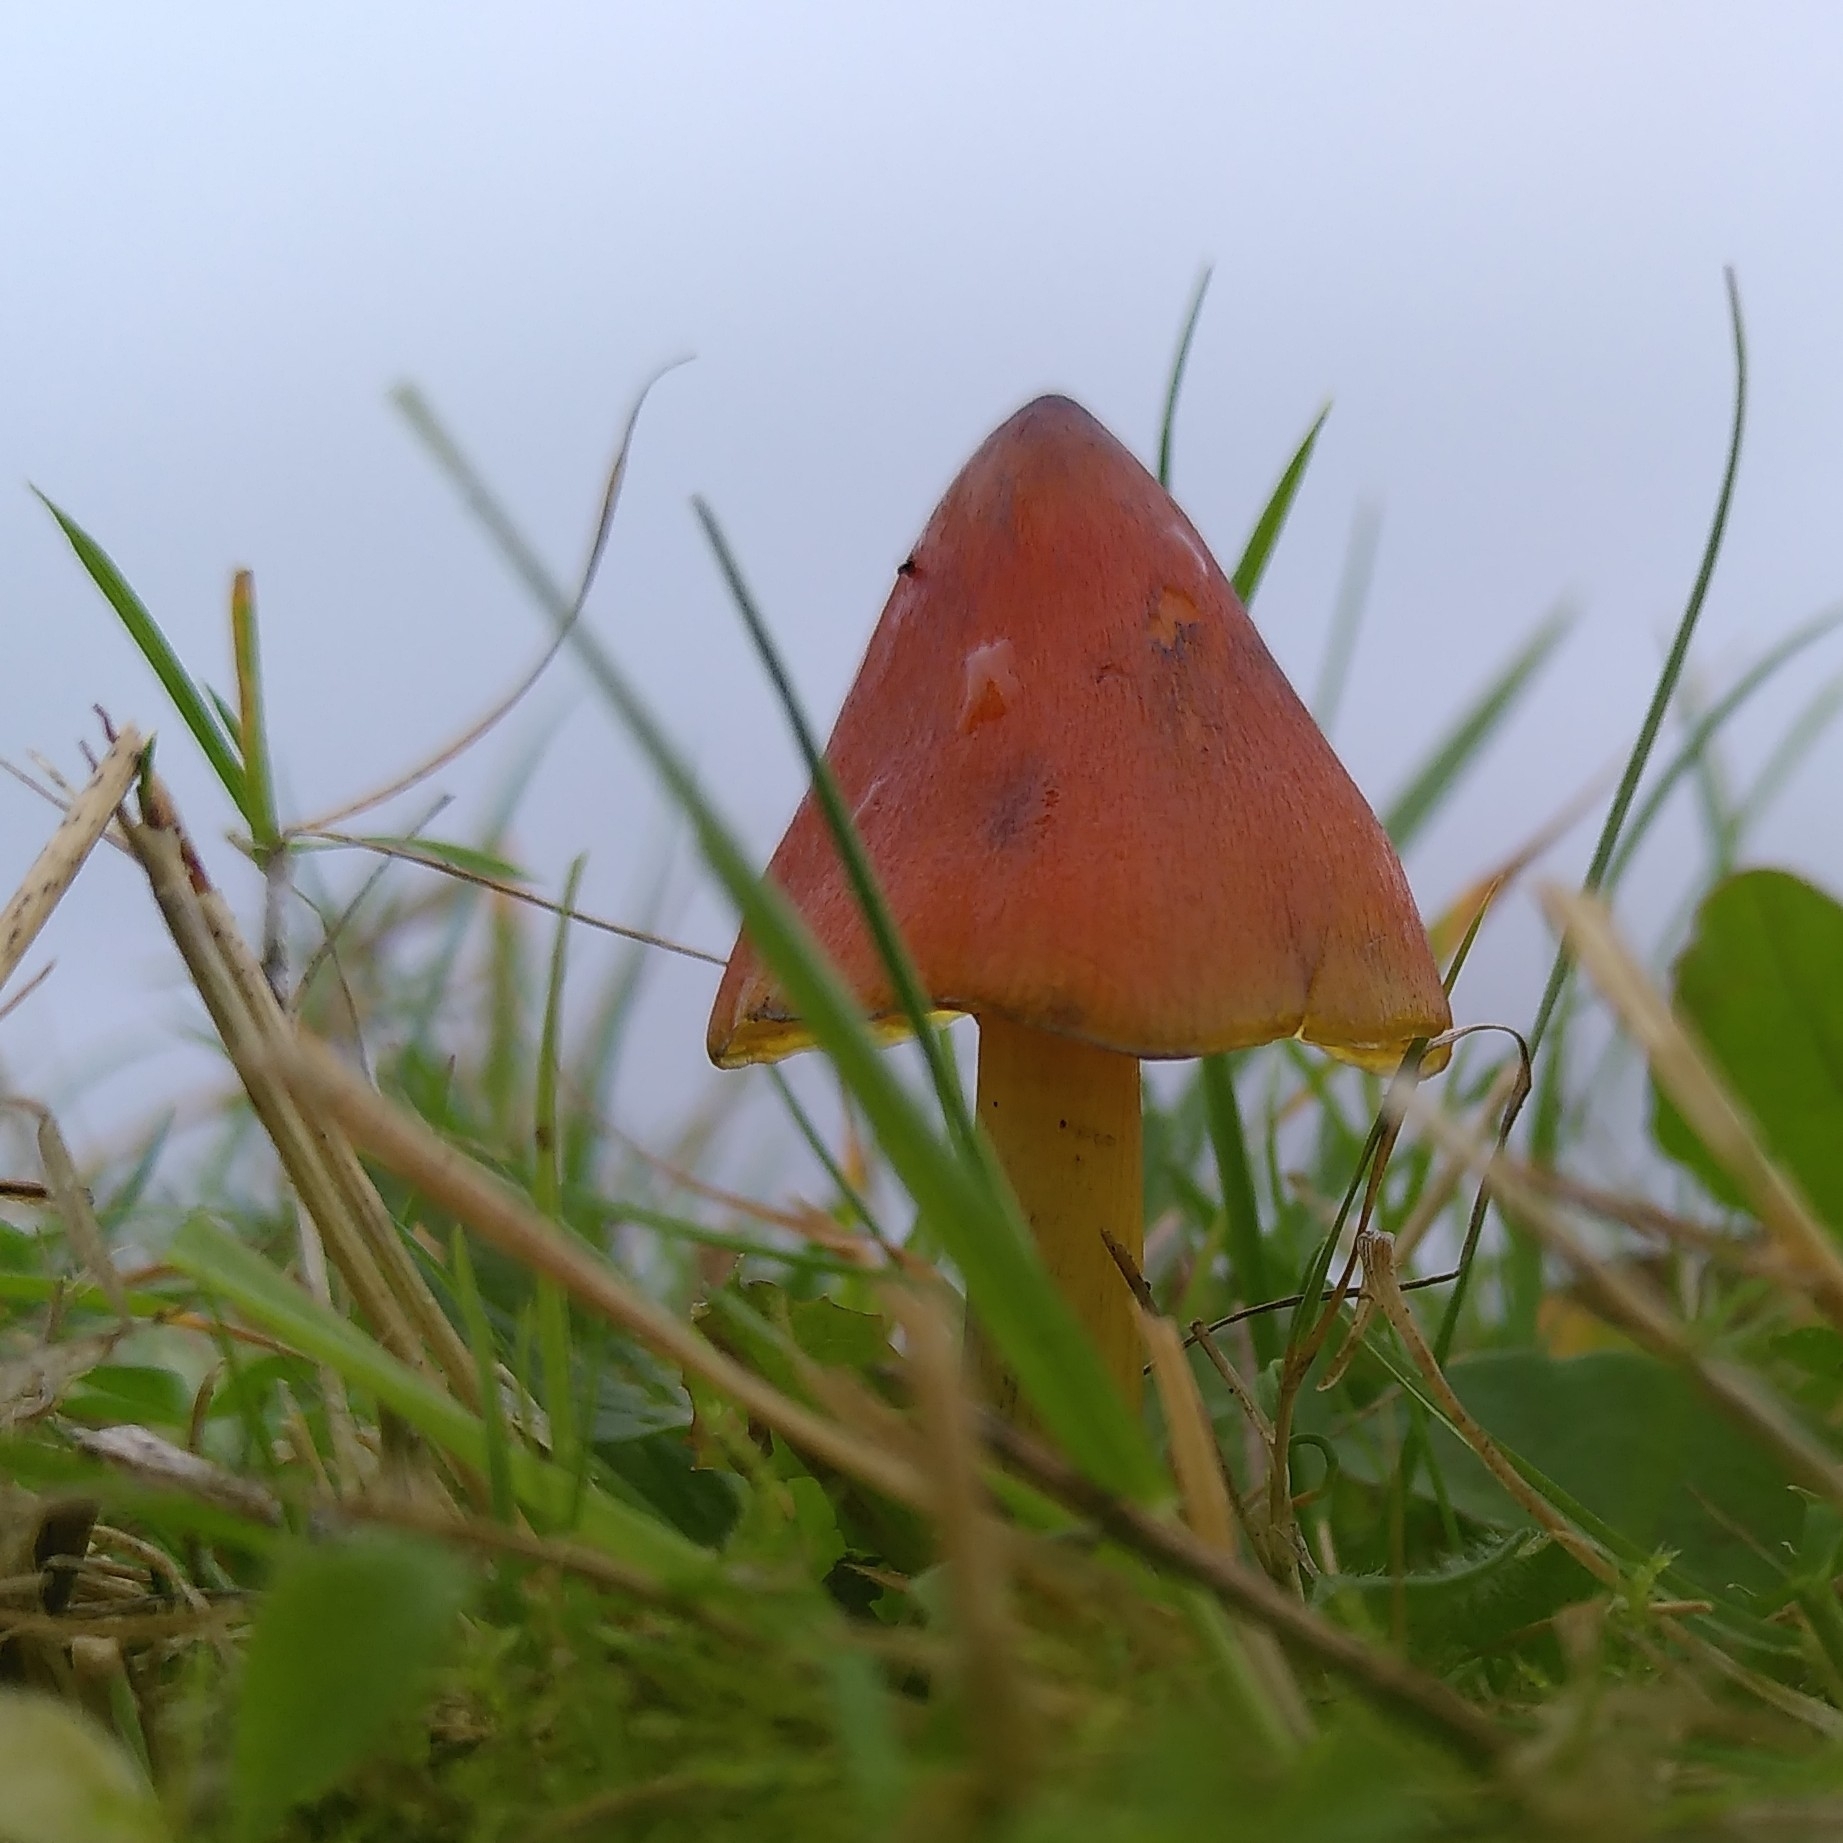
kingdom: Fungi
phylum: Basidiomycota
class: Agaricomycetes
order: Agaricales
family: Hygrophoraceae
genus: Hygrocybe
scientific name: Hygrocybe conica
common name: Blackening wax-cap
